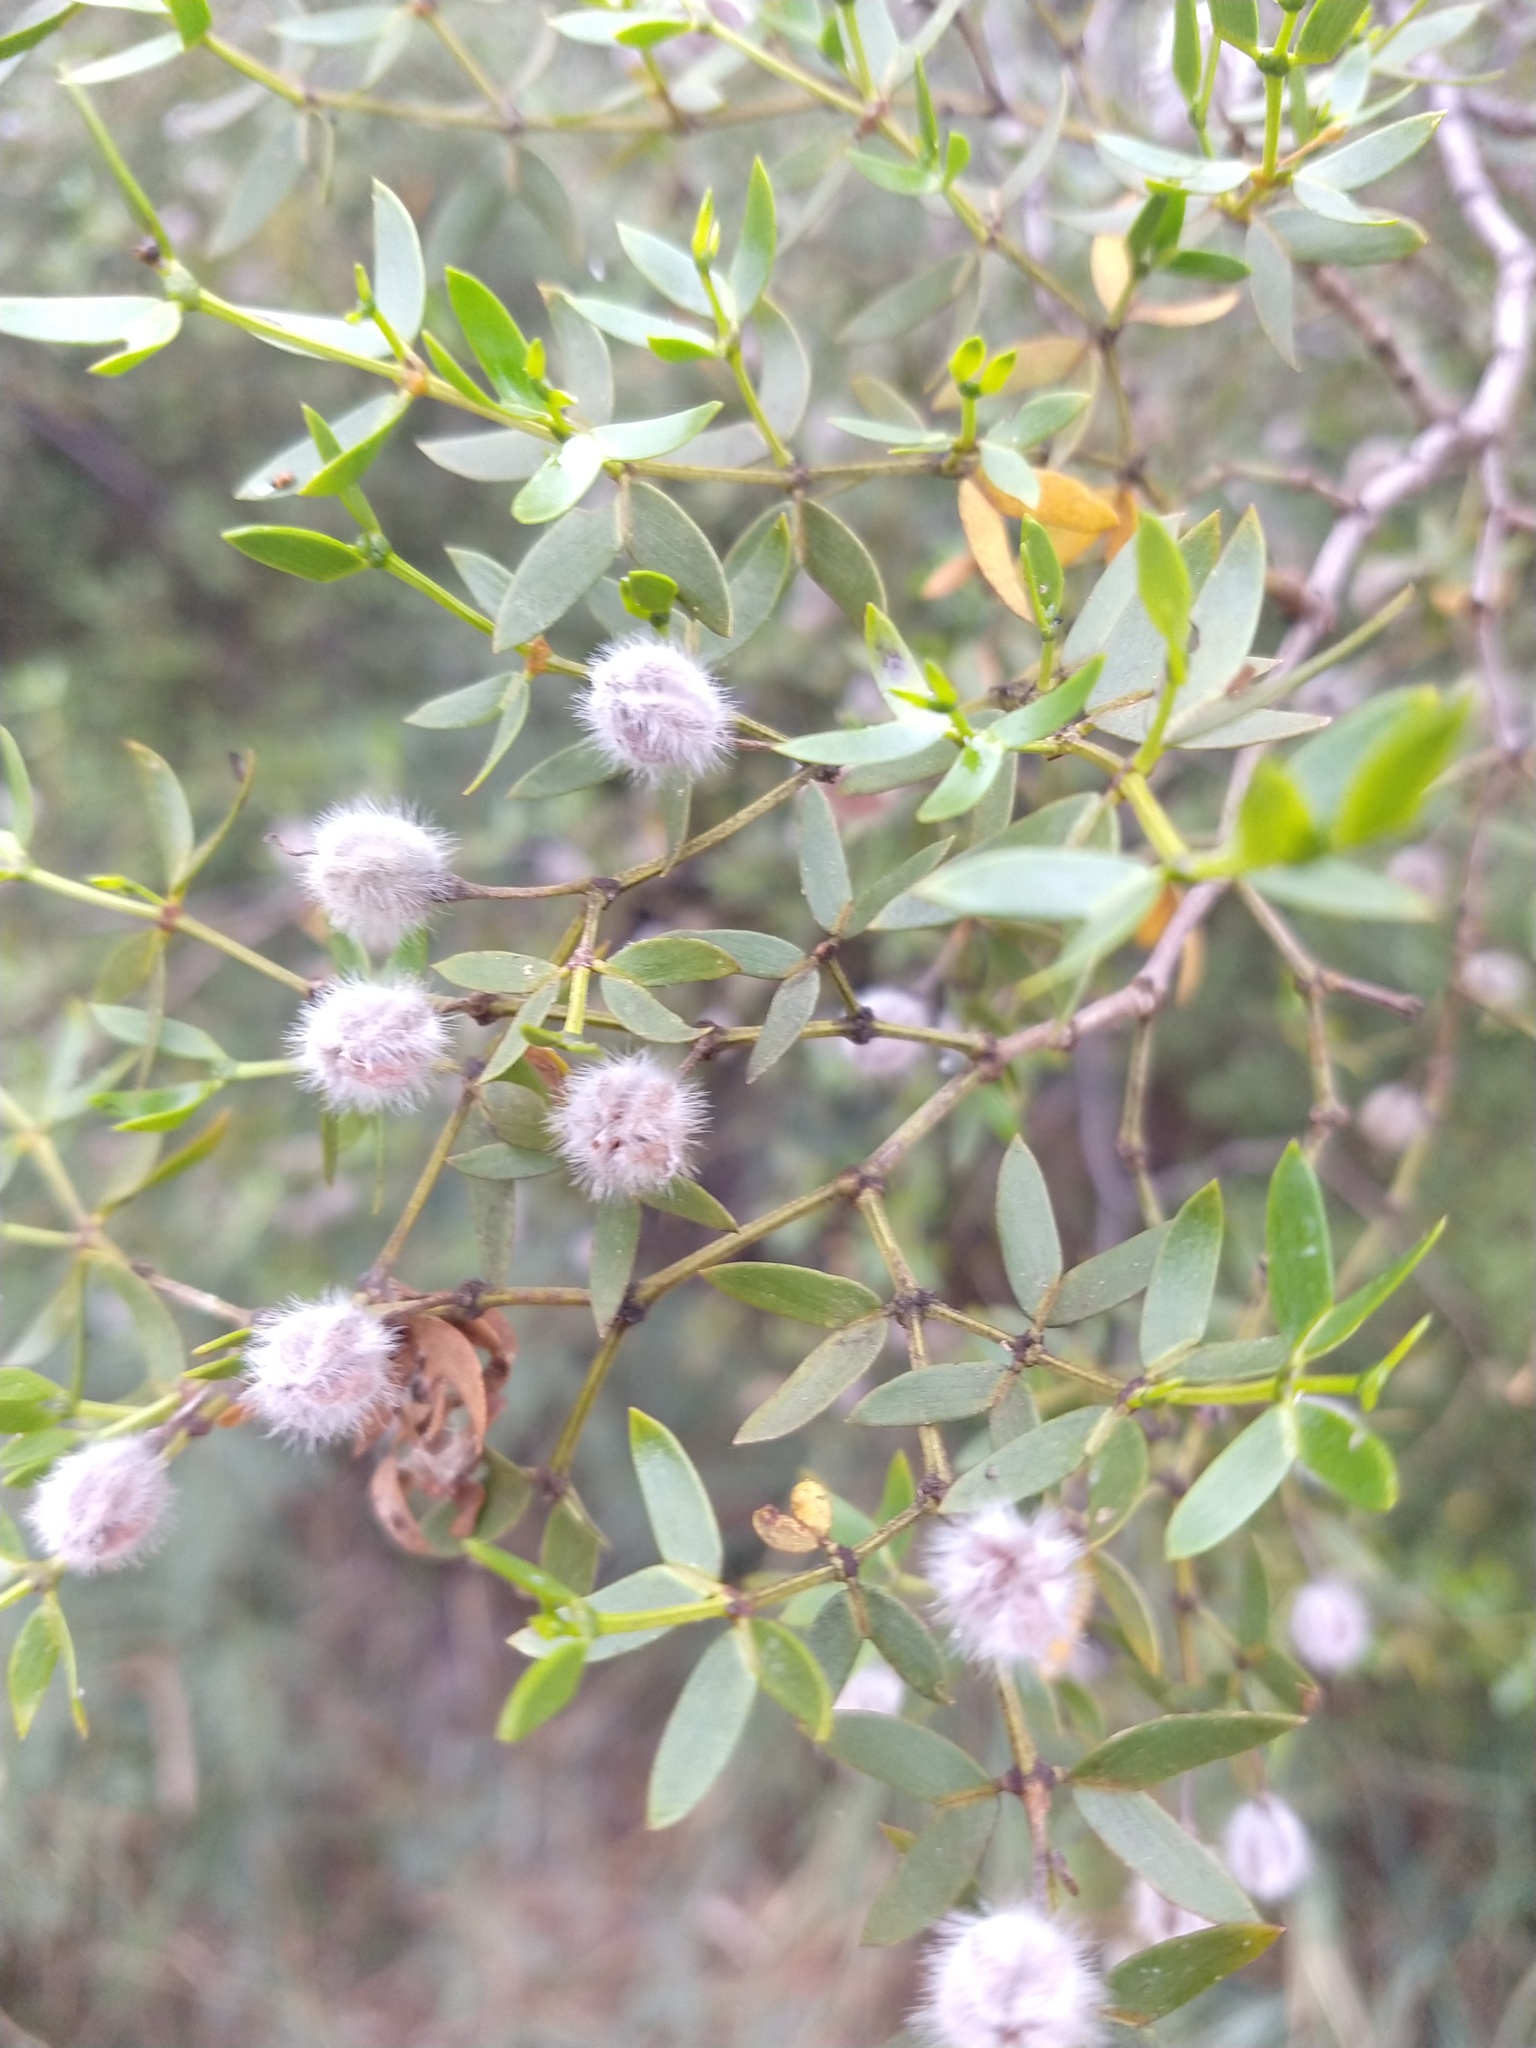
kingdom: Plantae
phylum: Tracheophyta
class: Magnoliopsida
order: Zygophyllales
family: Zygophyllaceae
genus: Larrea
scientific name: Larrea divaricata
